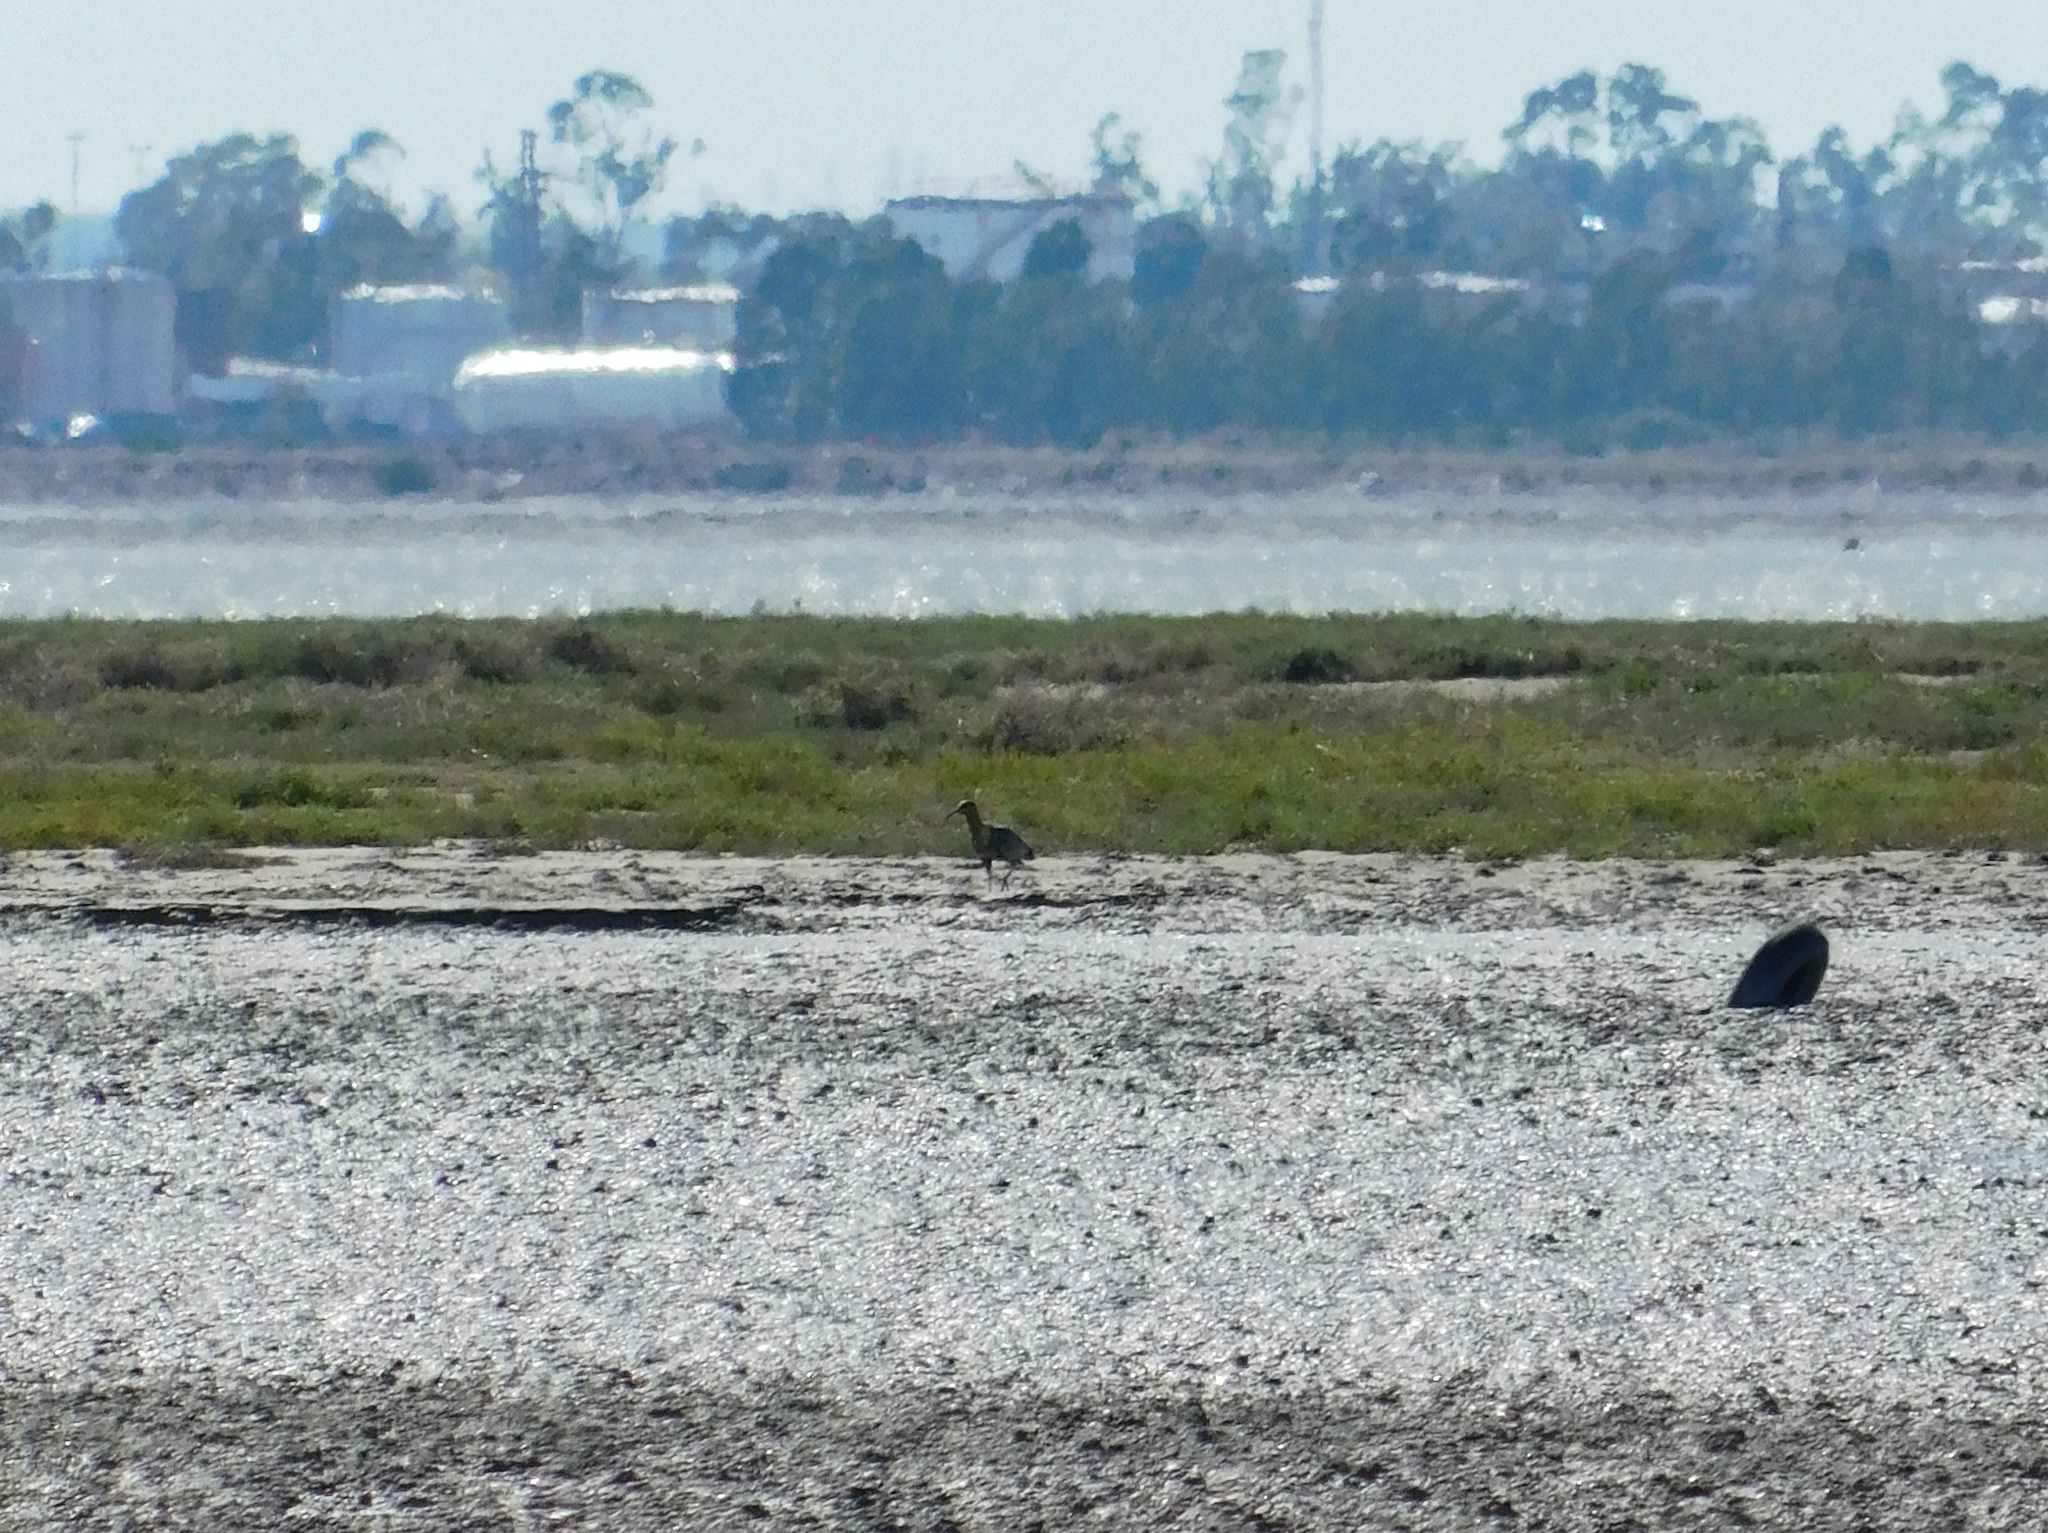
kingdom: Animalia
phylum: Chordata
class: Aves
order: Pelecaniformes
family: Threskiornithidae
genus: Theristicus
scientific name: Theristicus melanopis
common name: Black-faced ibis
